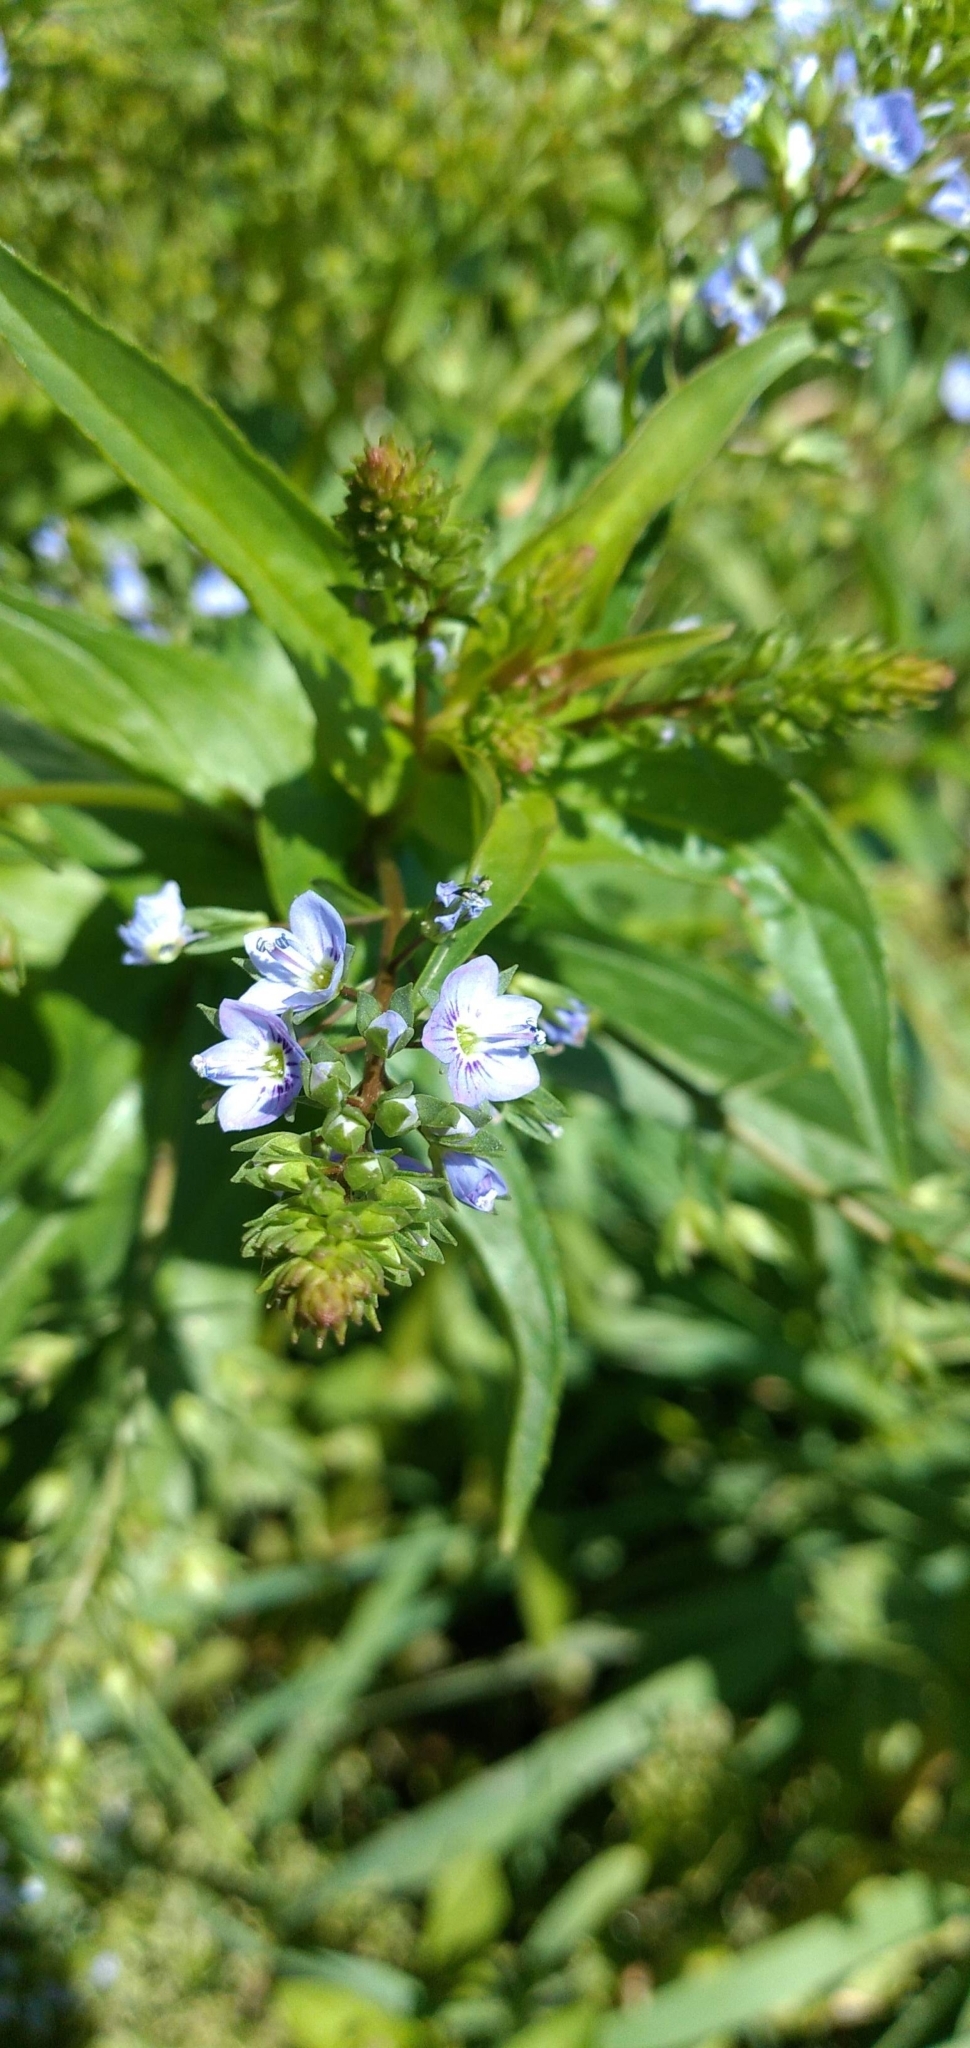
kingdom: Plantae
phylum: Tracheophyta
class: Magnoliopsida
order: Lamiales
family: Plantaginaceae
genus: Veronica
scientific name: Veronica anagallis-aquatica
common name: Water speedwell
